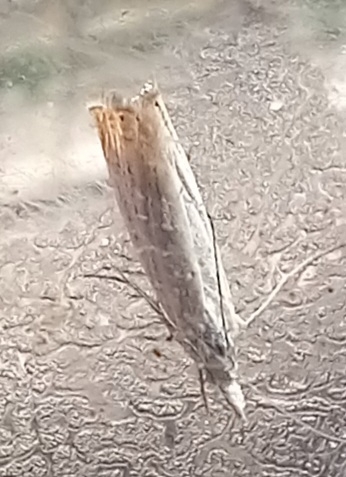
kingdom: Animalia
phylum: Arthropoda
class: Insecta
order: Lepidoptera
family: Crambidae
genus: Chrysoteuchia
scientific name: Chrysoteuchia culmella
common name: Garden grass-veneer
